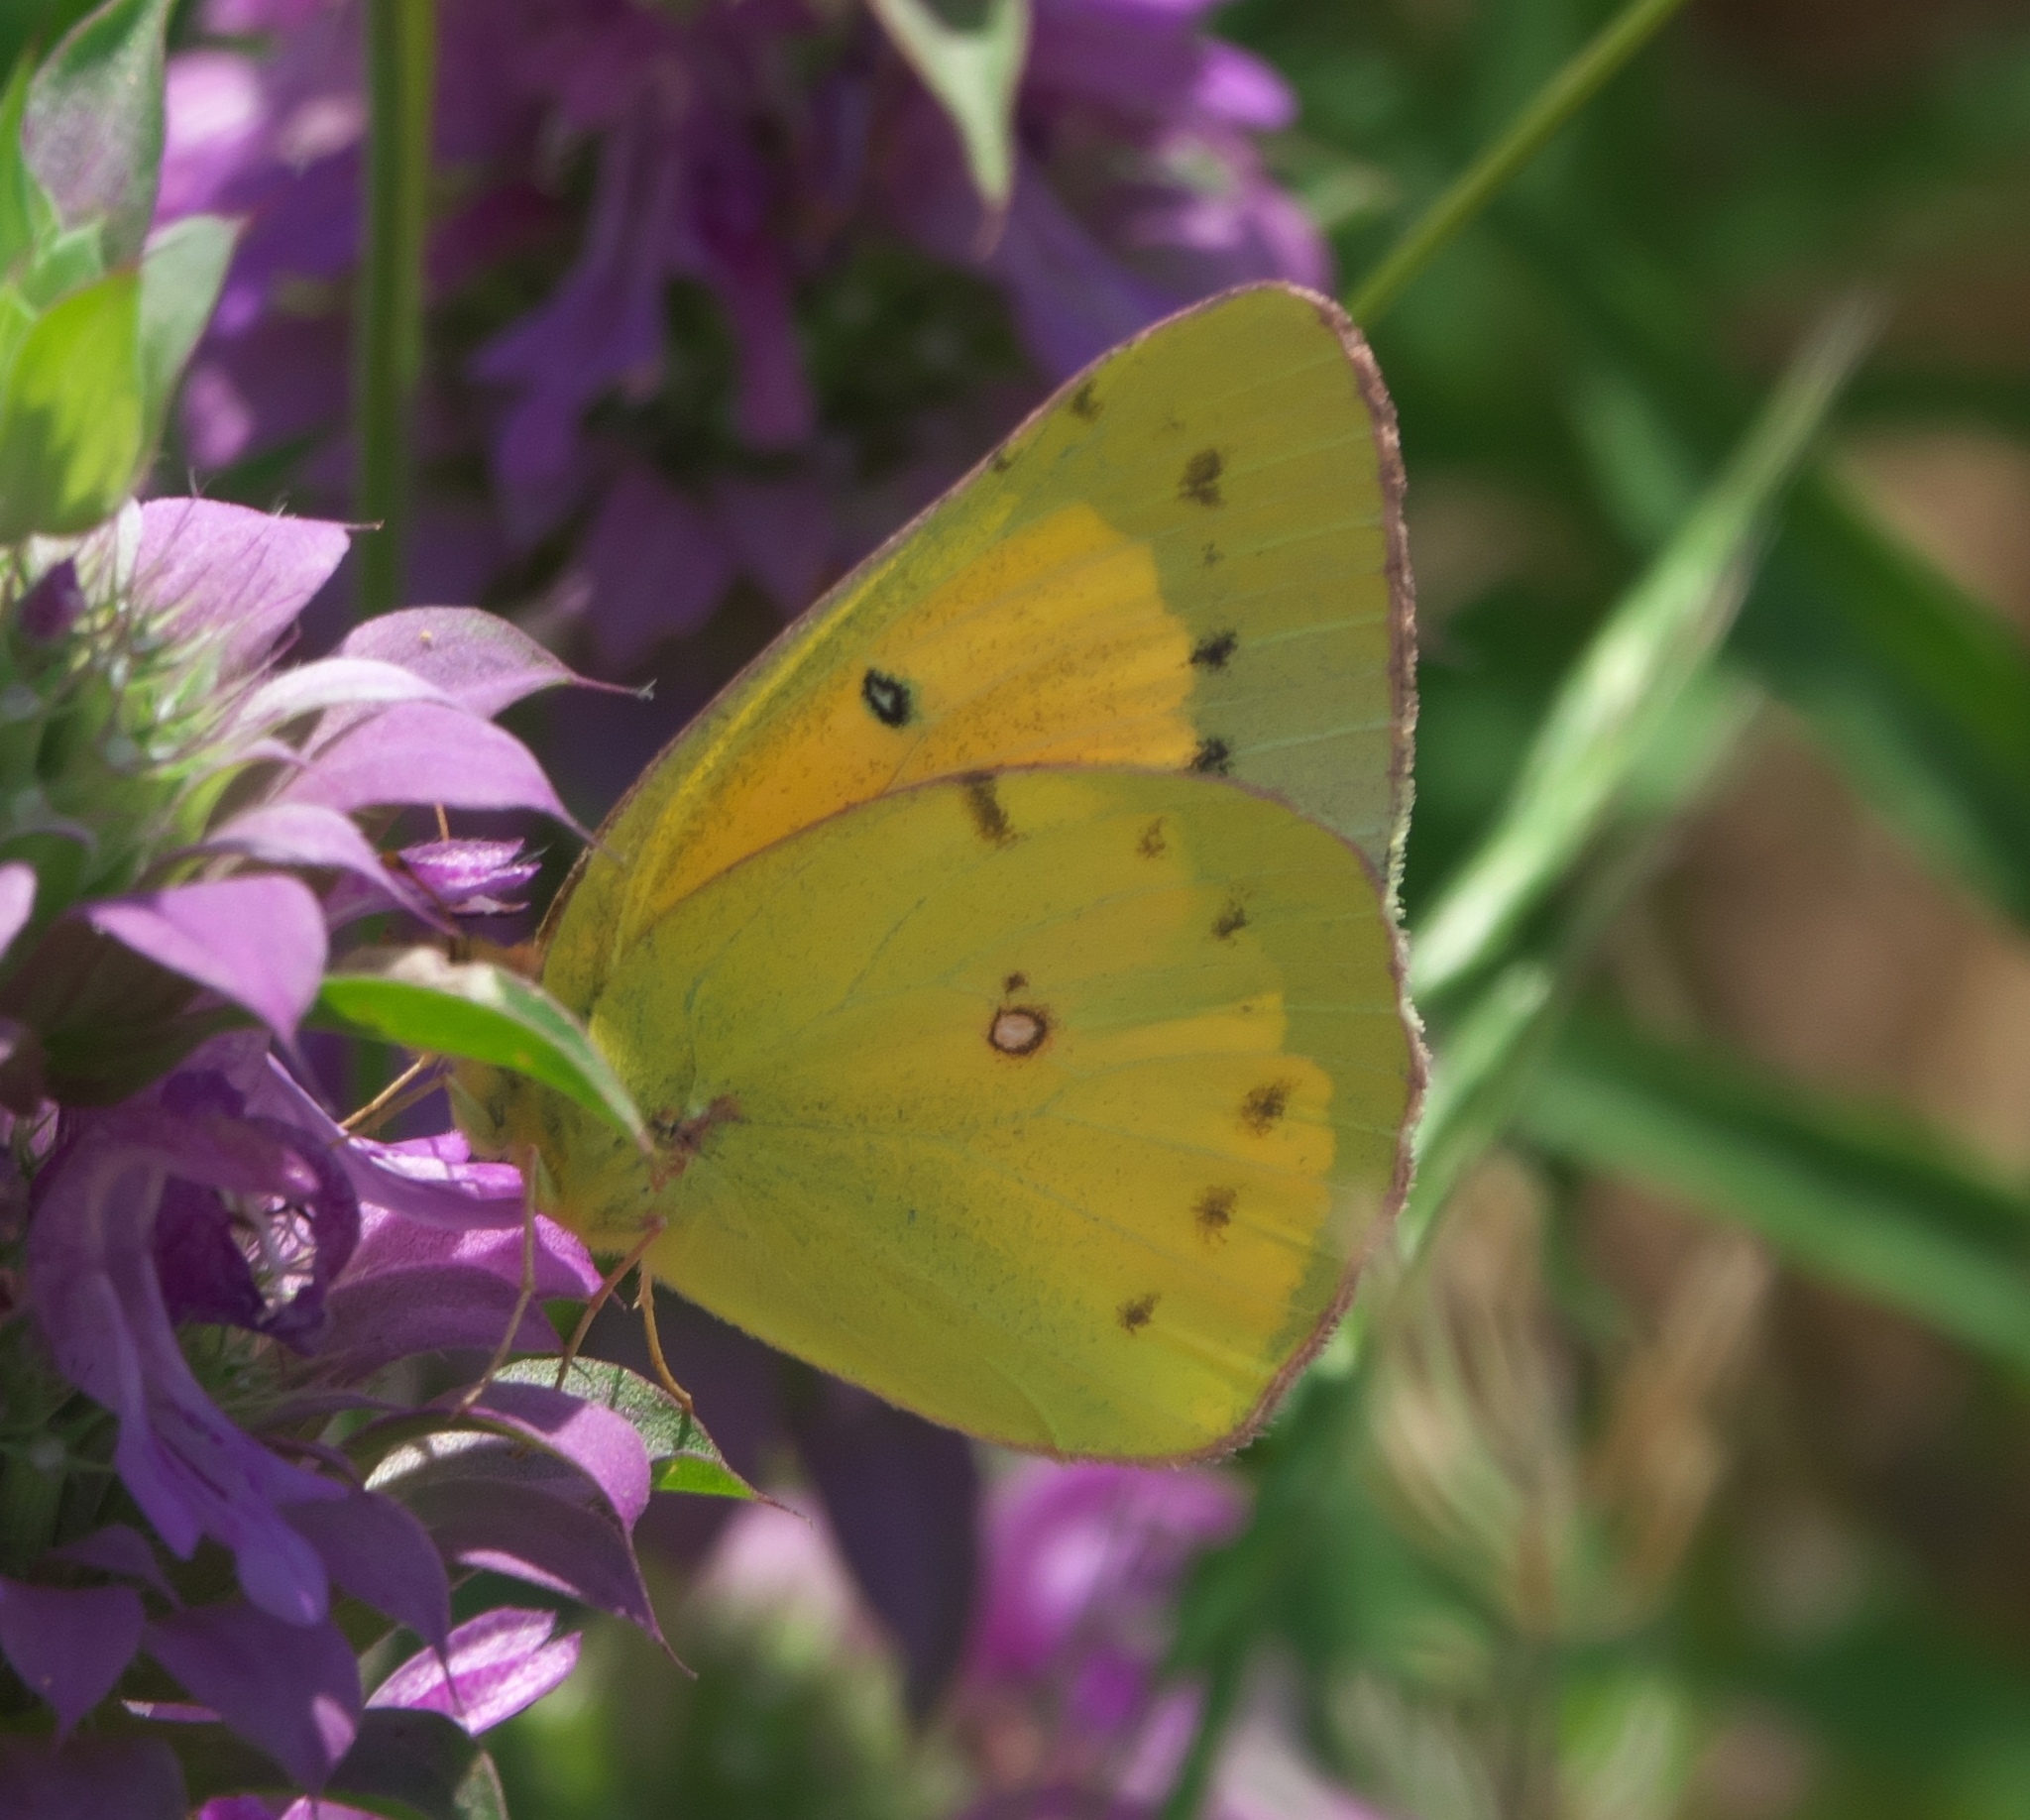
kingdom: Animalia
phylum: Arthropoda
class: Insecta
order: Lepidoptera
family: Pieridae
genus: Colias
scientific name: Colias eurytheme
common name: Alfalfa butterfly
